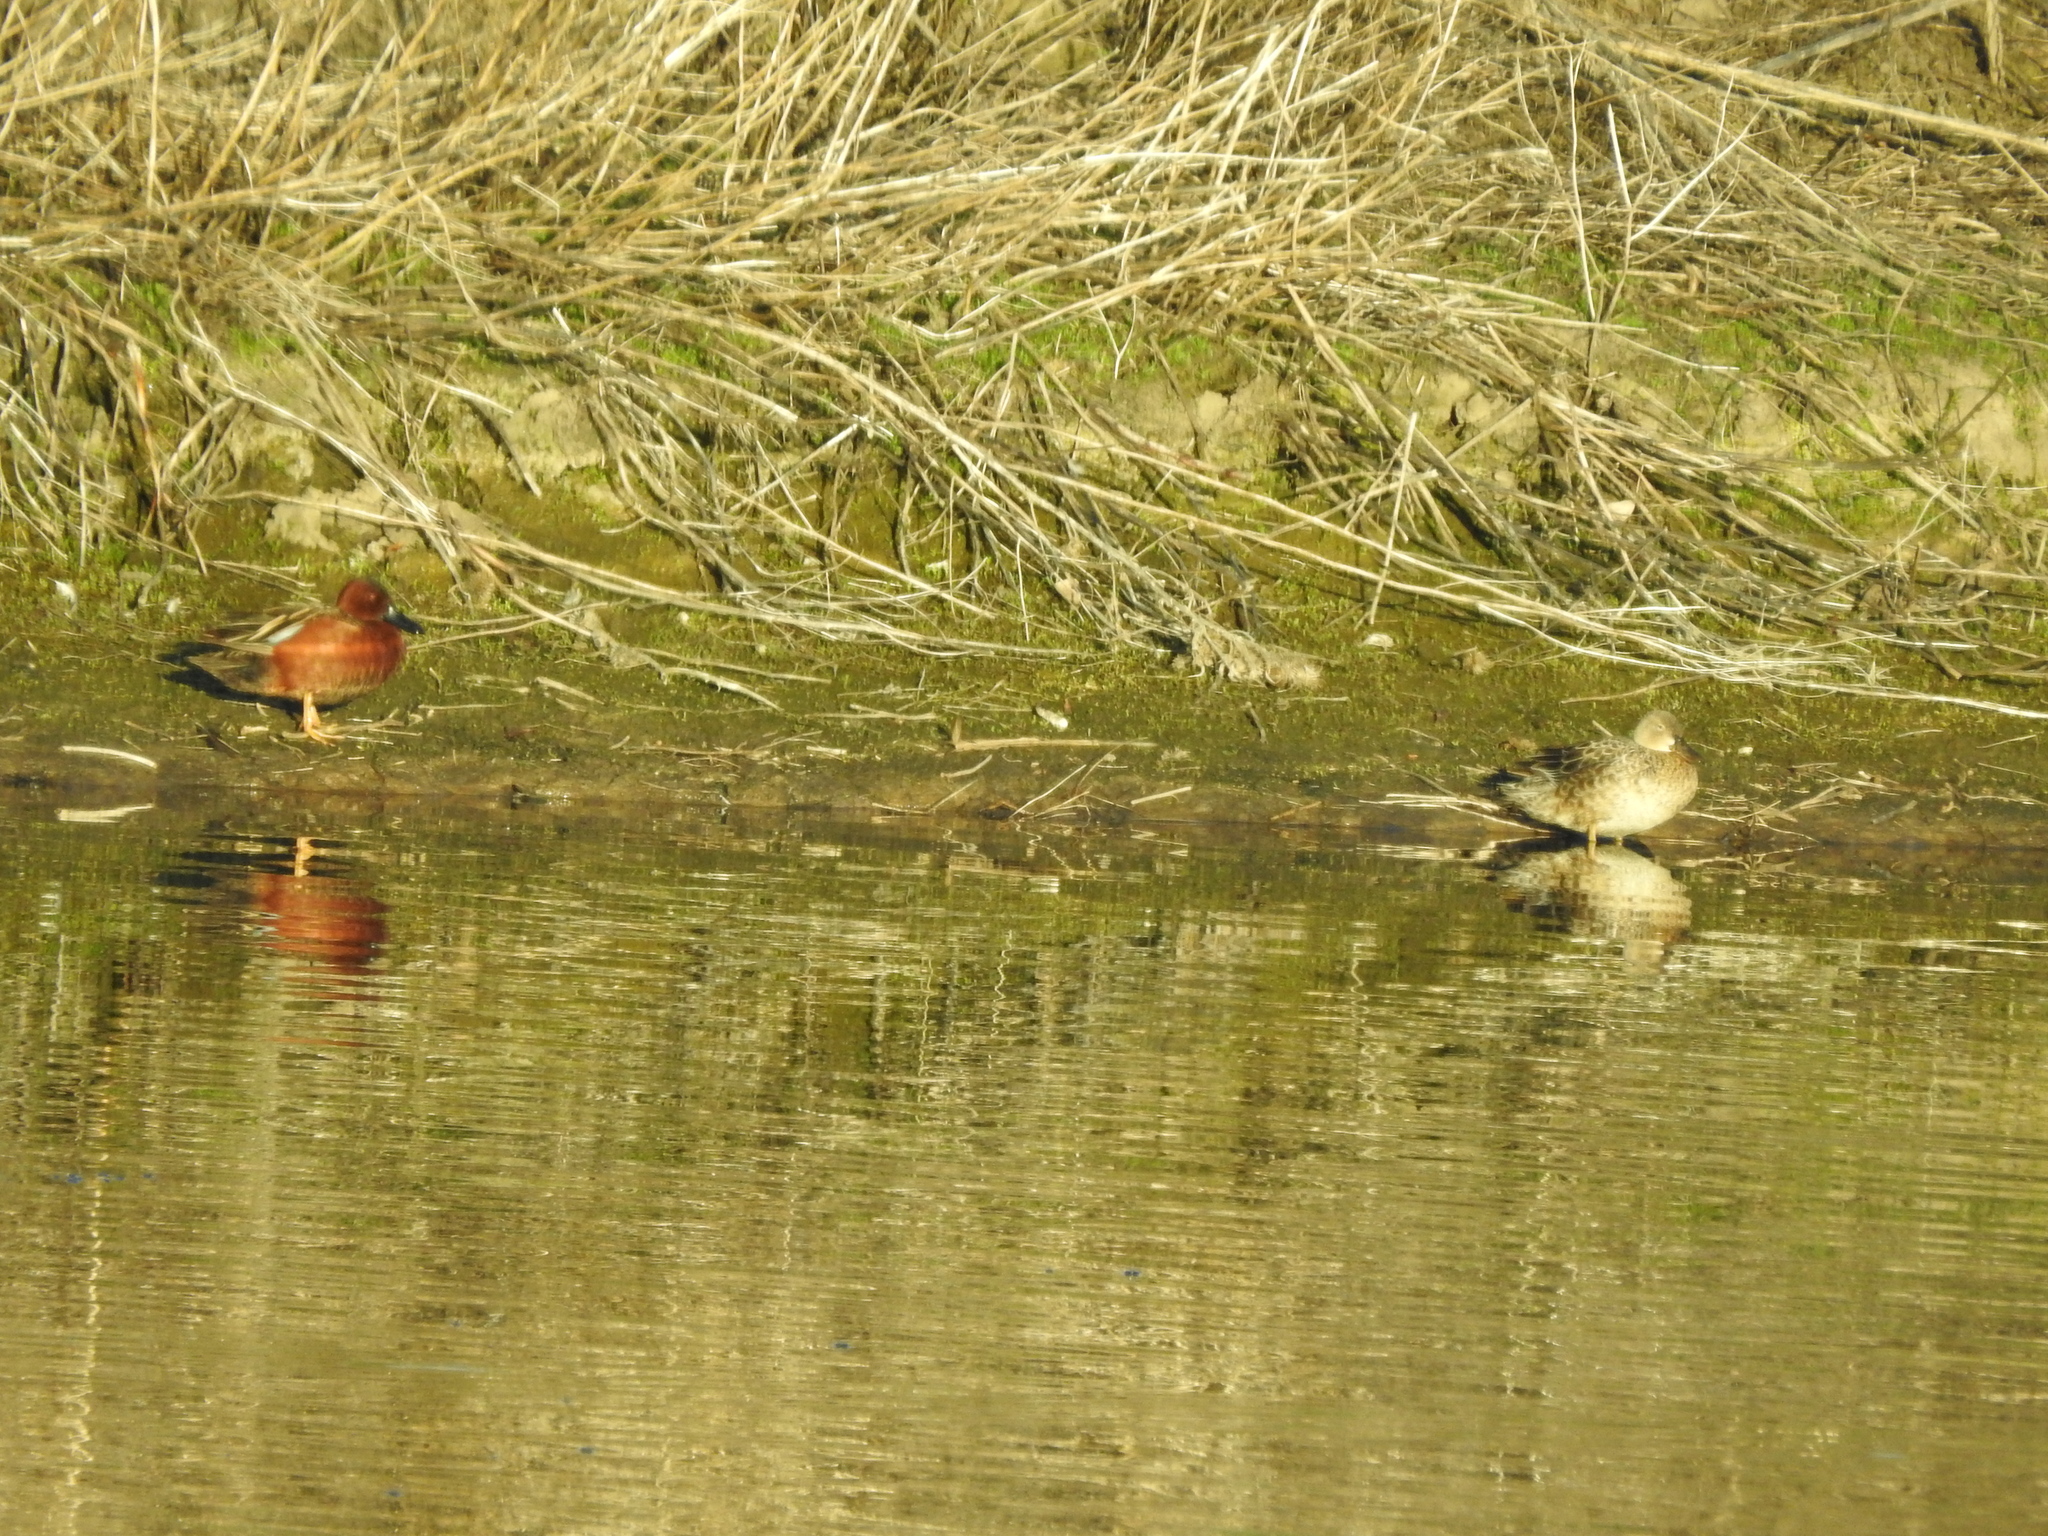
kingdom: Animalia
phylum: Chordata
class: Aves
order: Anseriformes
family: Anatidae
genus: Spatula
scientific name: Spatula cyanoptera
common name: Cinnamon teal
